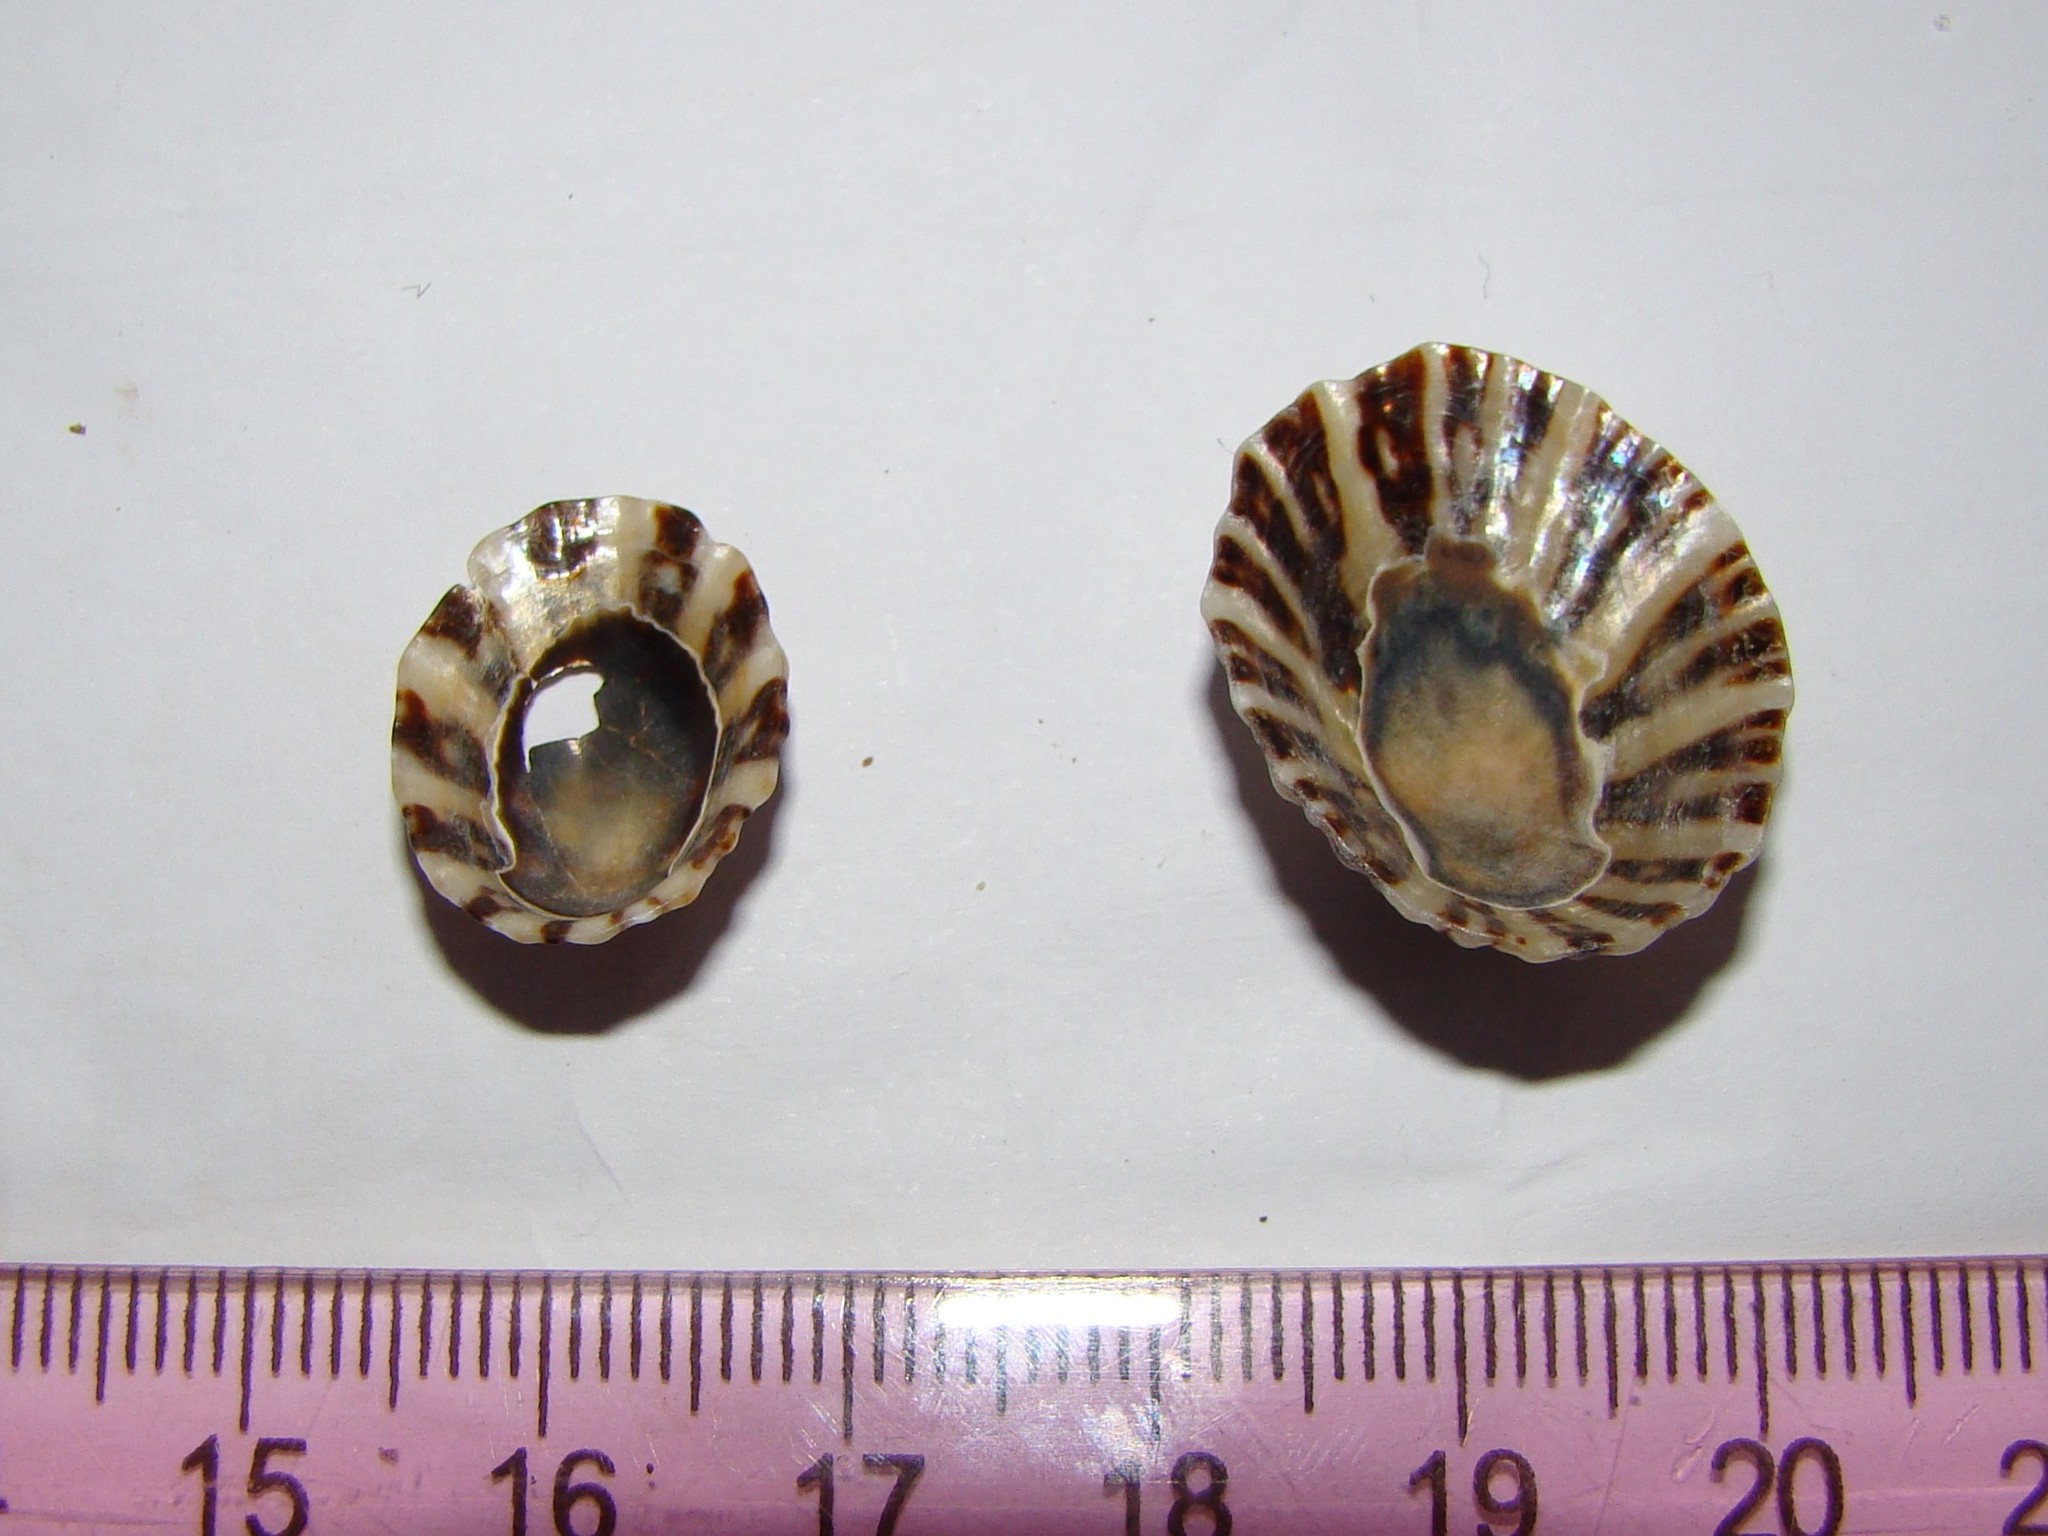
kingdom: Animalia
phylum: Mollusca
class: Gastropoda
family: Nacellidae
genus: Cellana
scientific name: Cellana ornata
